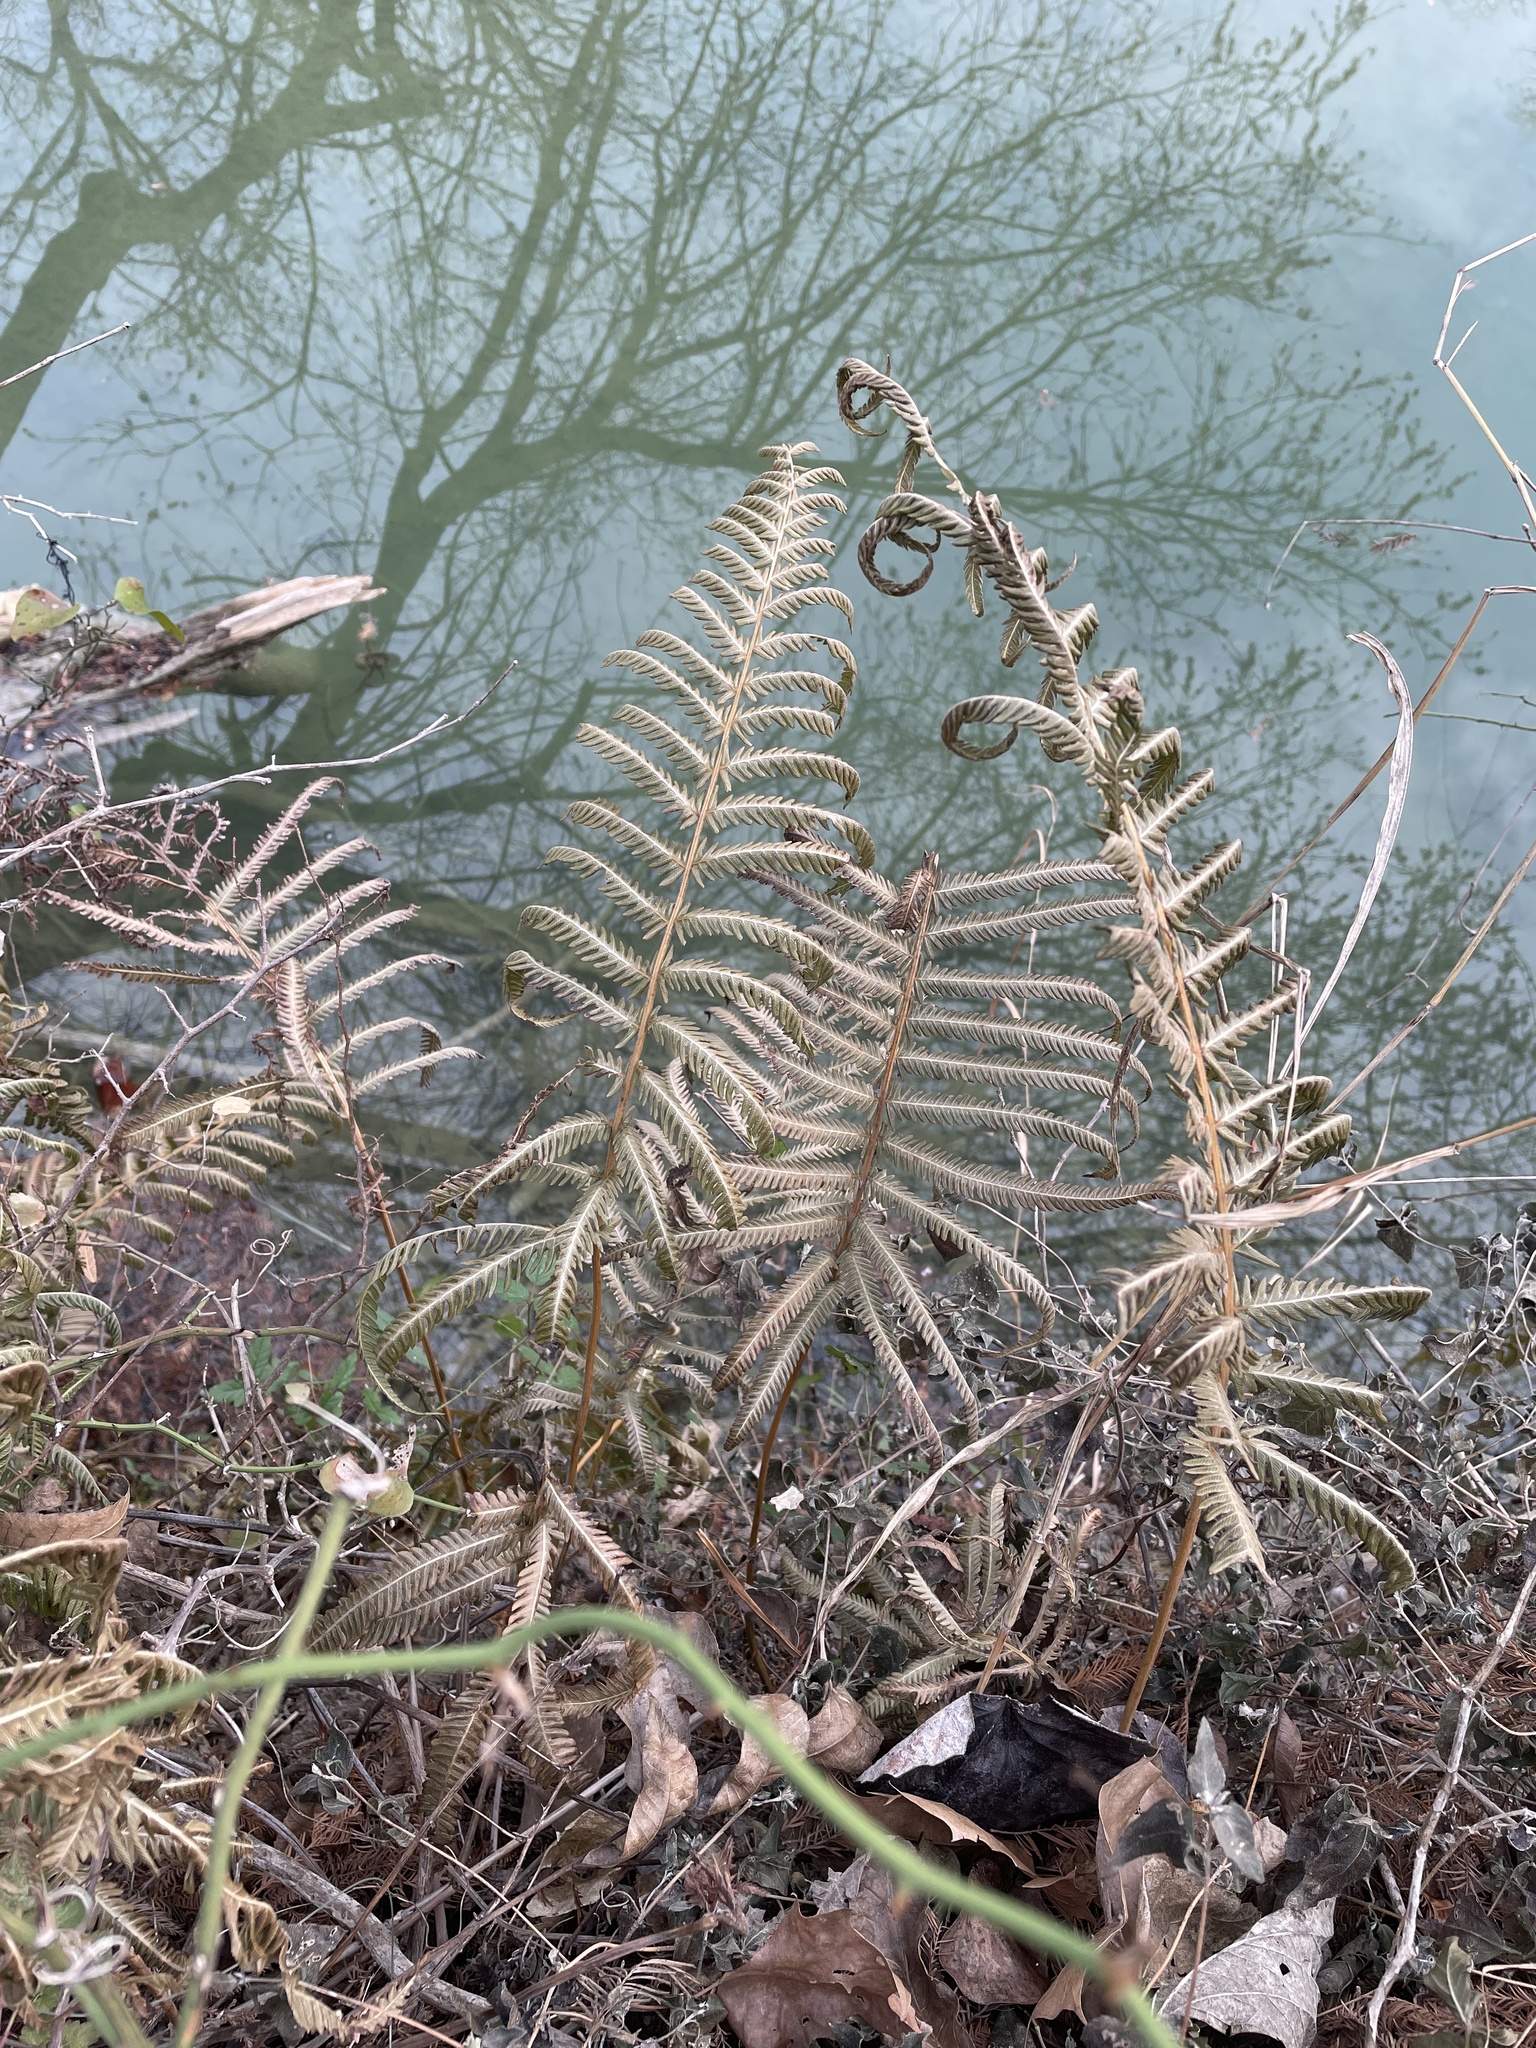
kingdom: Plantae
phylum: Tracheophyta
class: Polypodiopsida
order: Polypodiales
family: Thelypteridaceae
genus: Pelazoneuron
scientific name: Pelazoneuron ovatum
